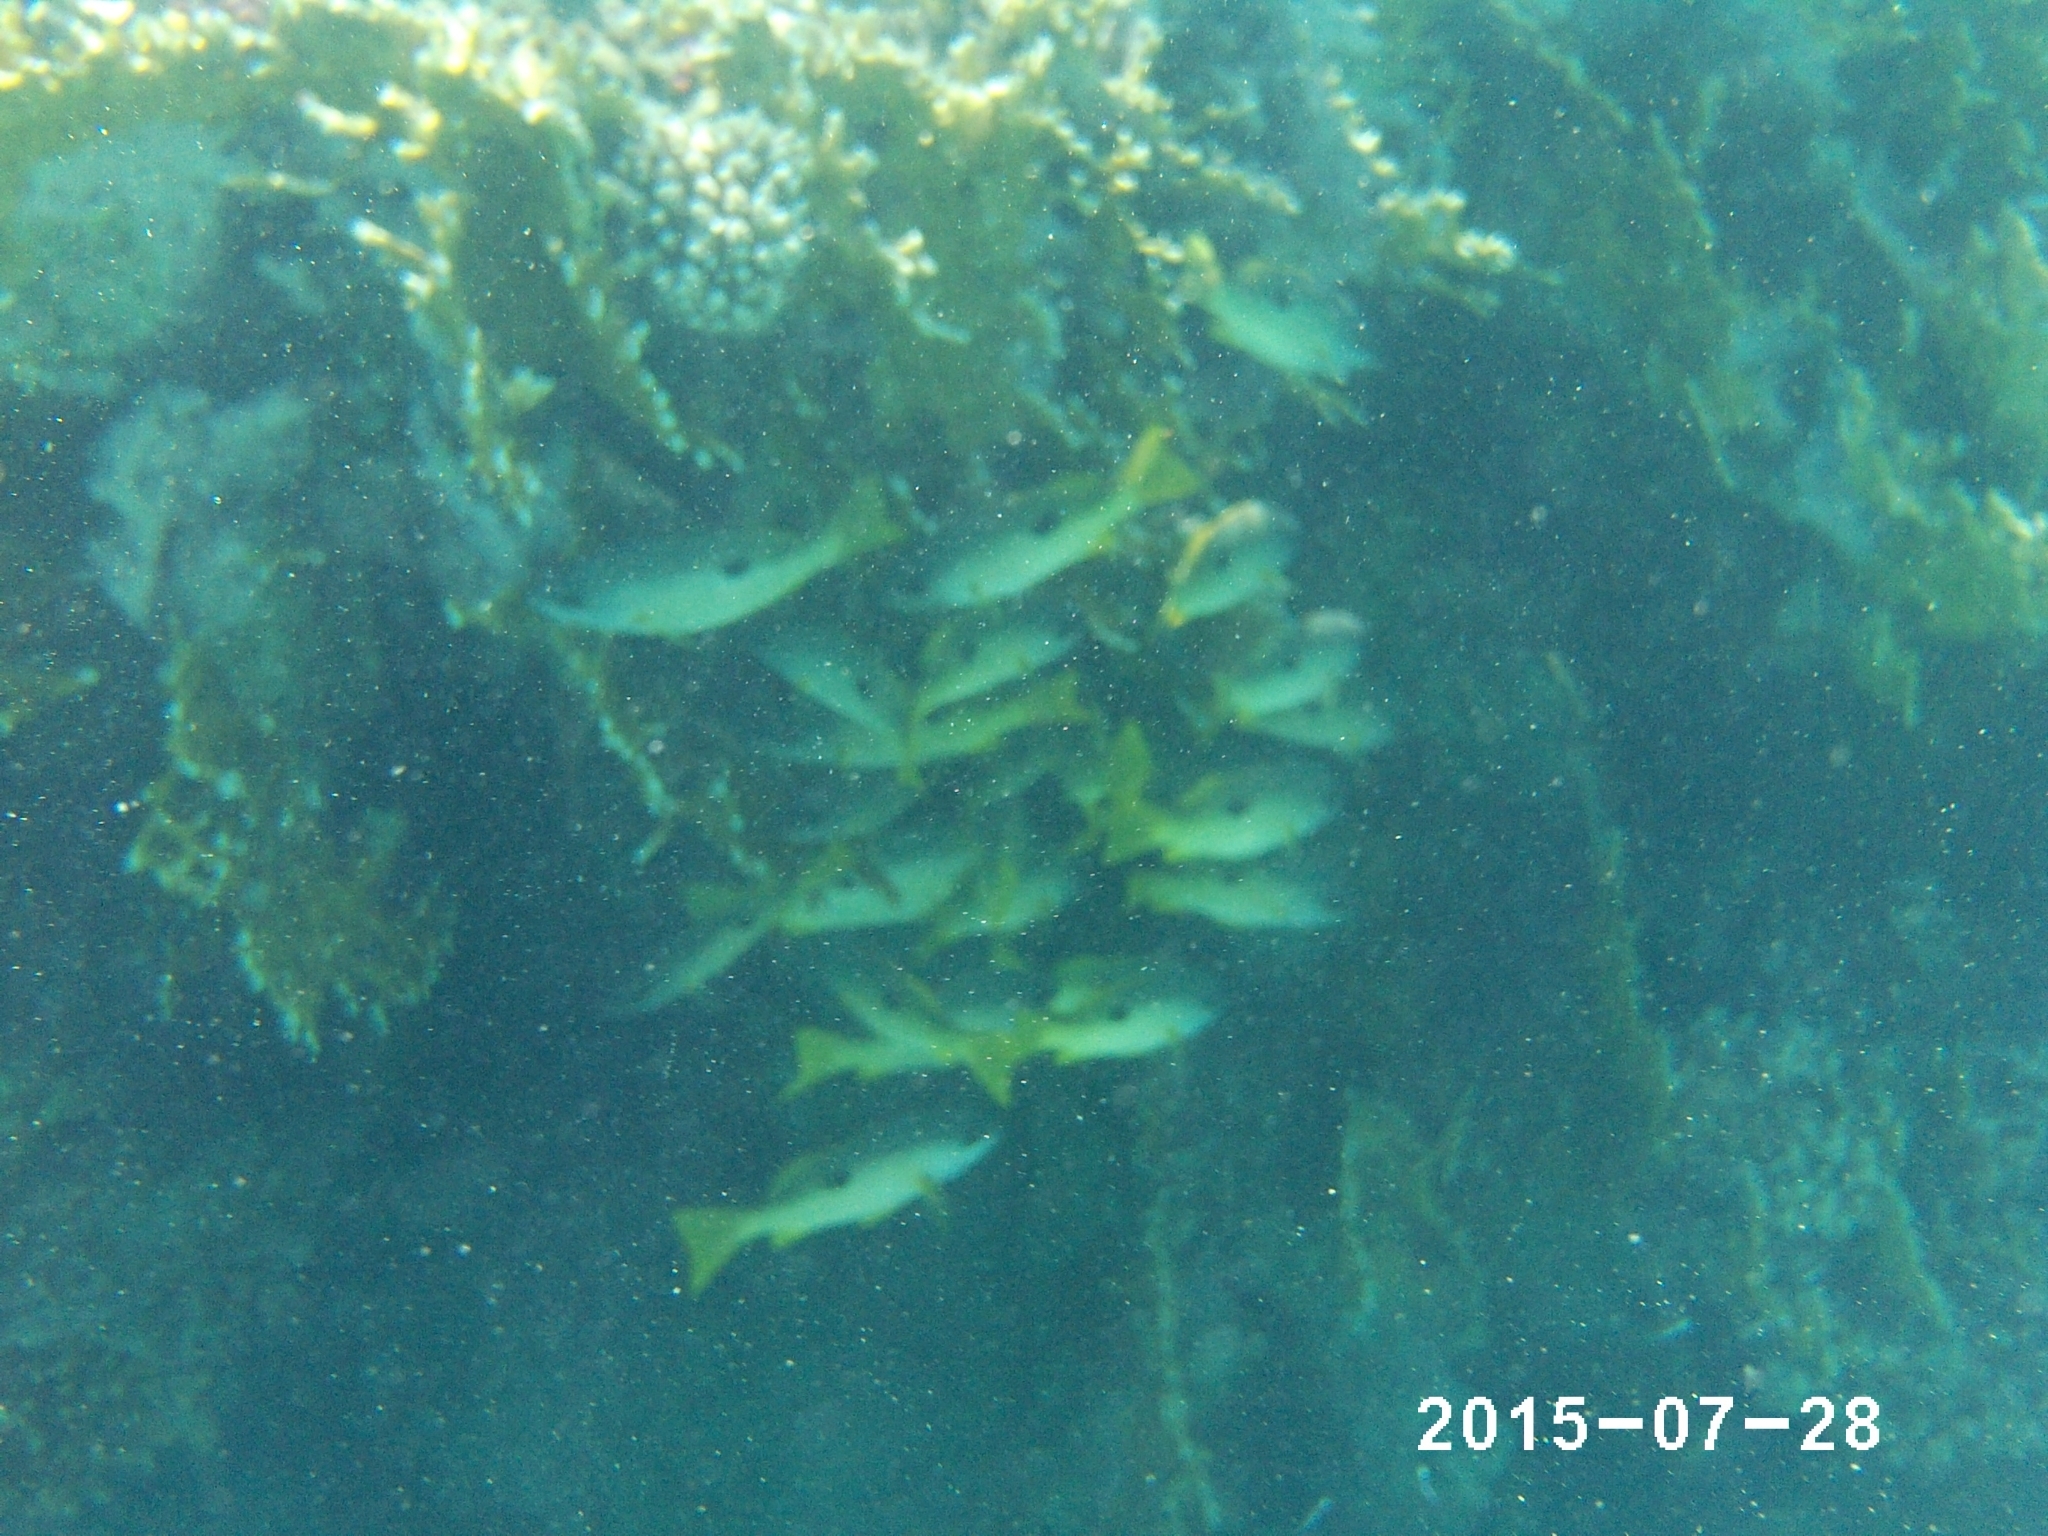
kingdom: Animalia
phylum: Chordata
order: Perciformes
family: Lutjanidae
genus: Lutjanus
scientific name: Lutjanus fulviflamma
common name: Blackspot snapper
